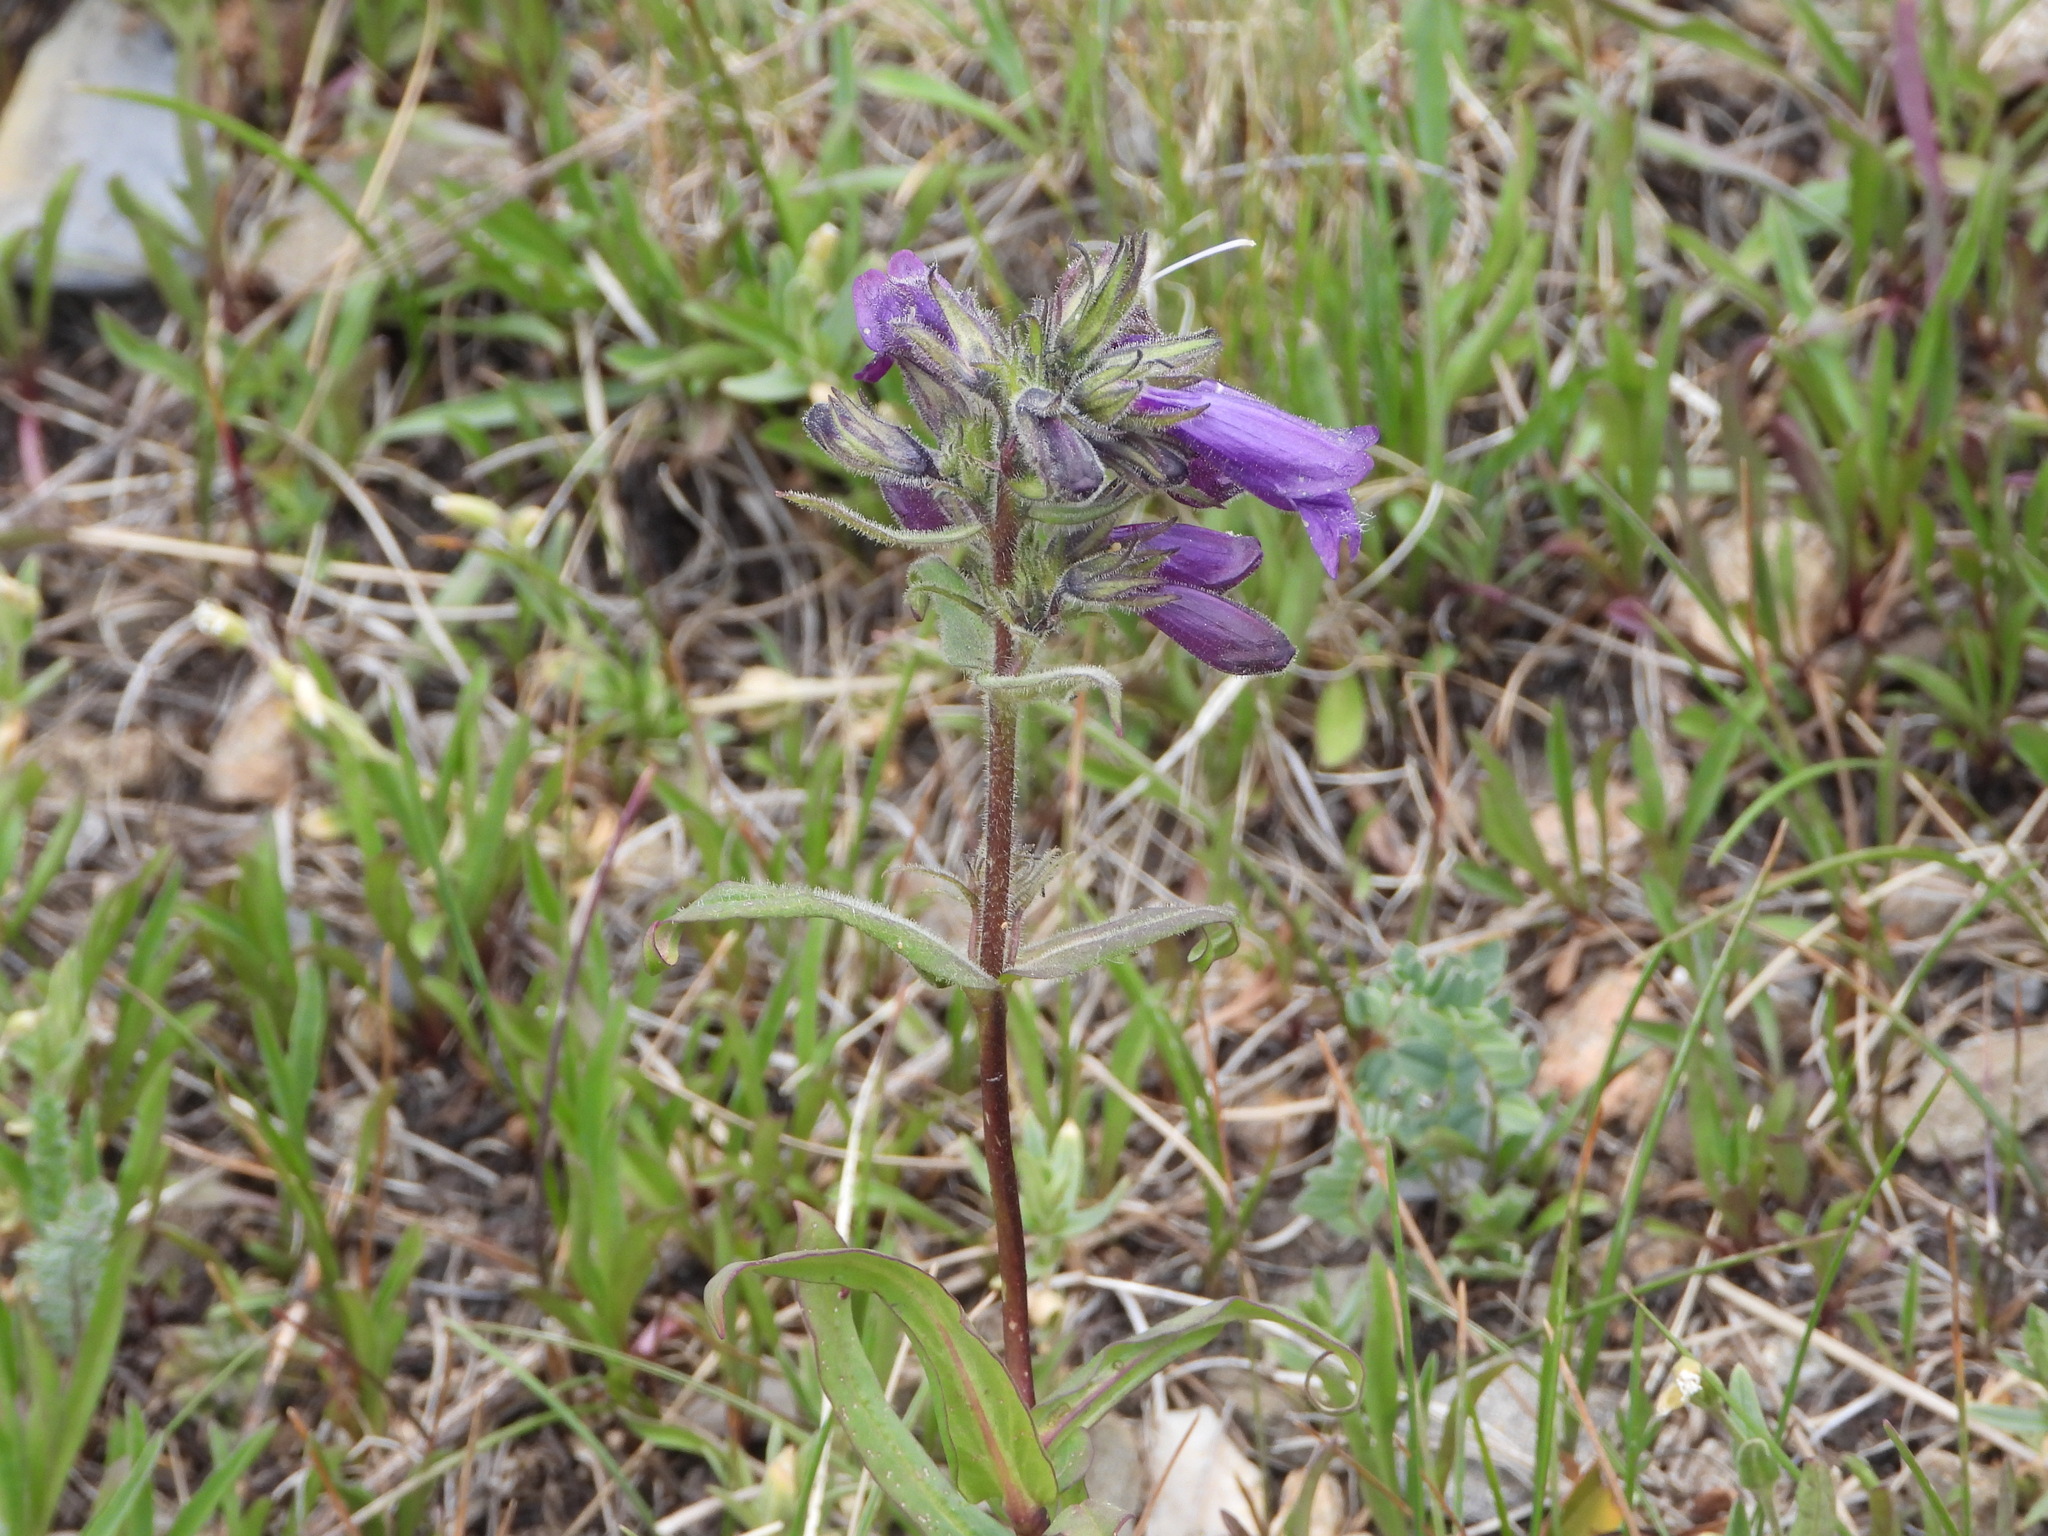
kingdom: Plantae
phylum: Tracheophyta
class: Magnoliopsida
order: Lamiales
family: Plantaginaceae
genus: Penstemon
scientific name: Penstemon whippleanus
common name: Whipple's penstemon
